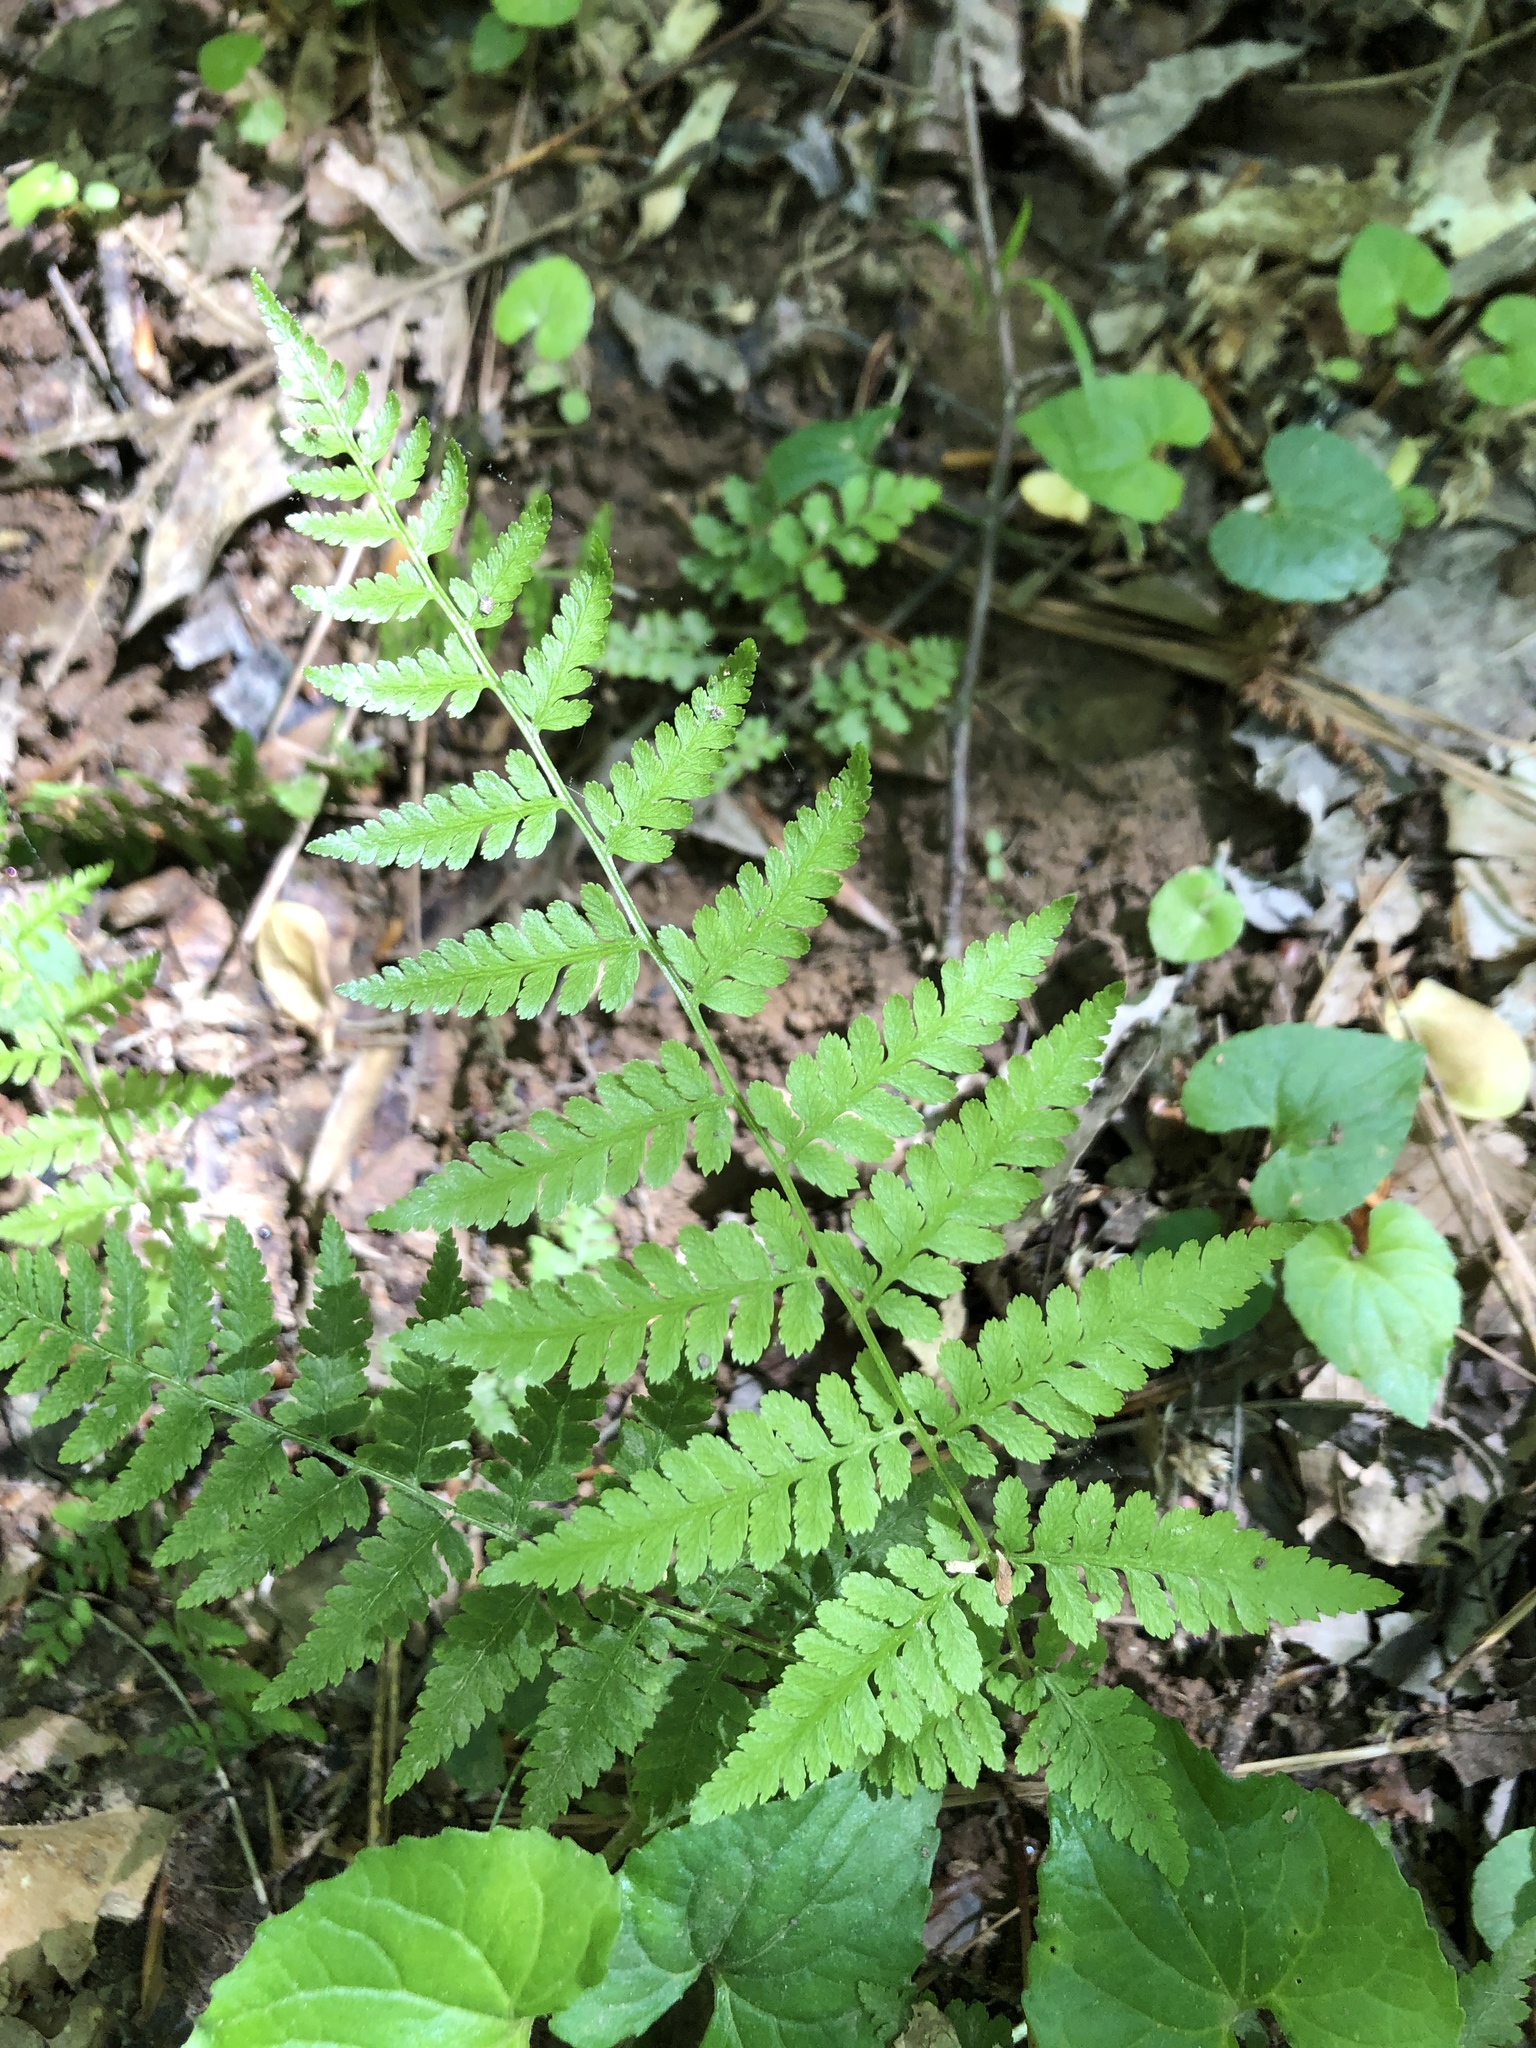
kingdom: Plantae
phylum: Tracheophyta
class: Polypodiopsida
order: Polypodiales
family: Athyriaceae
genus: Athyrium
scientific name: Athyrium asplenioides
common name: Southern lady fern
